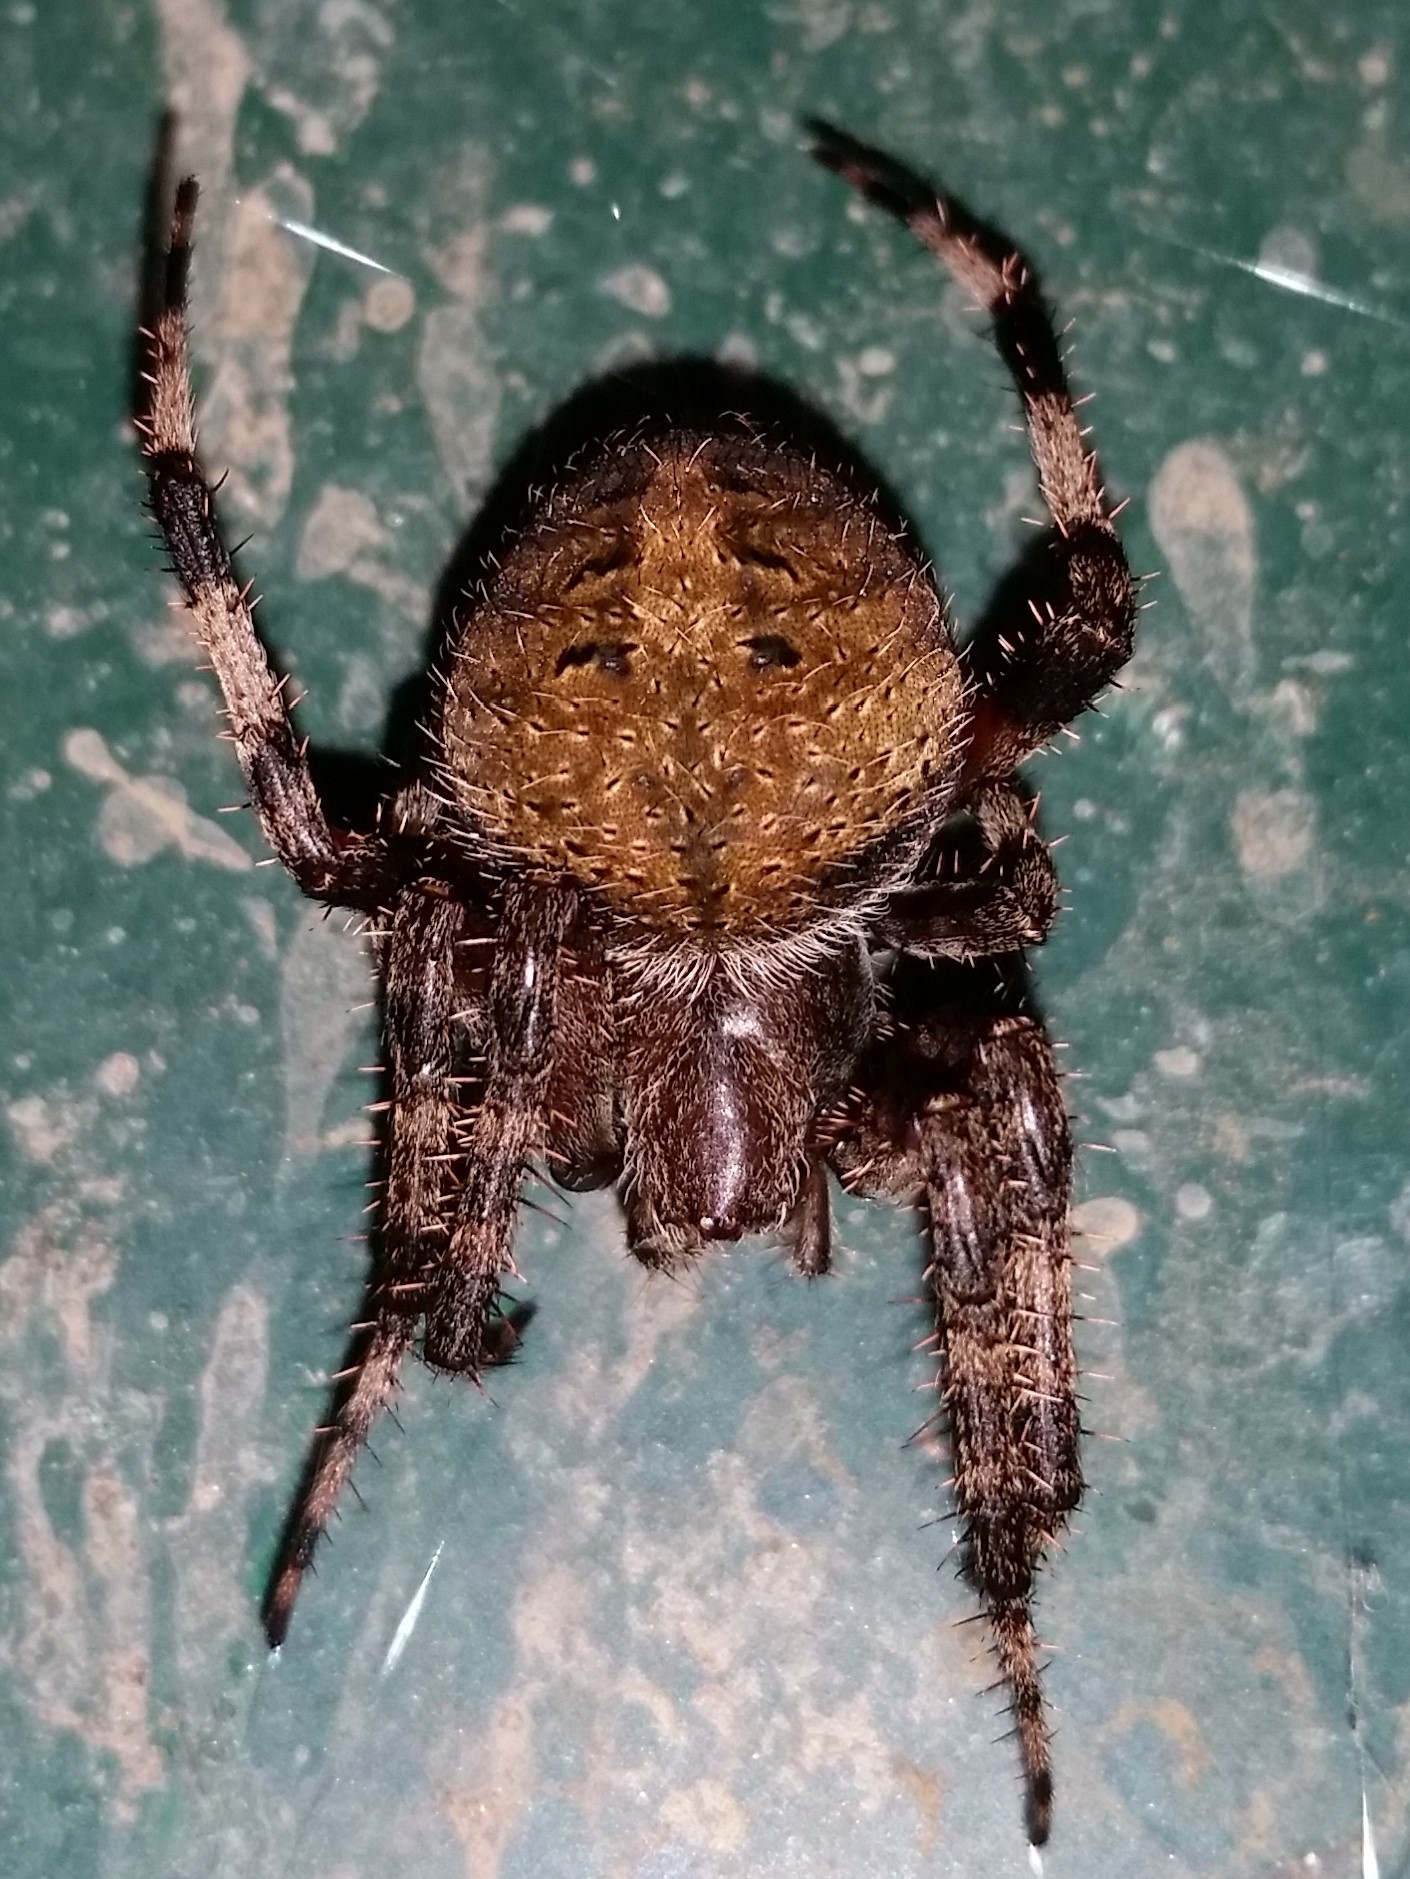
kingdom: Animalia
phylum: Arthropoda
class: Arachnida
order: Araneae
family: Araneidae
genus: Neoscona
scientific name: Neoscona crucifera
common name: Spotted orbweaver
